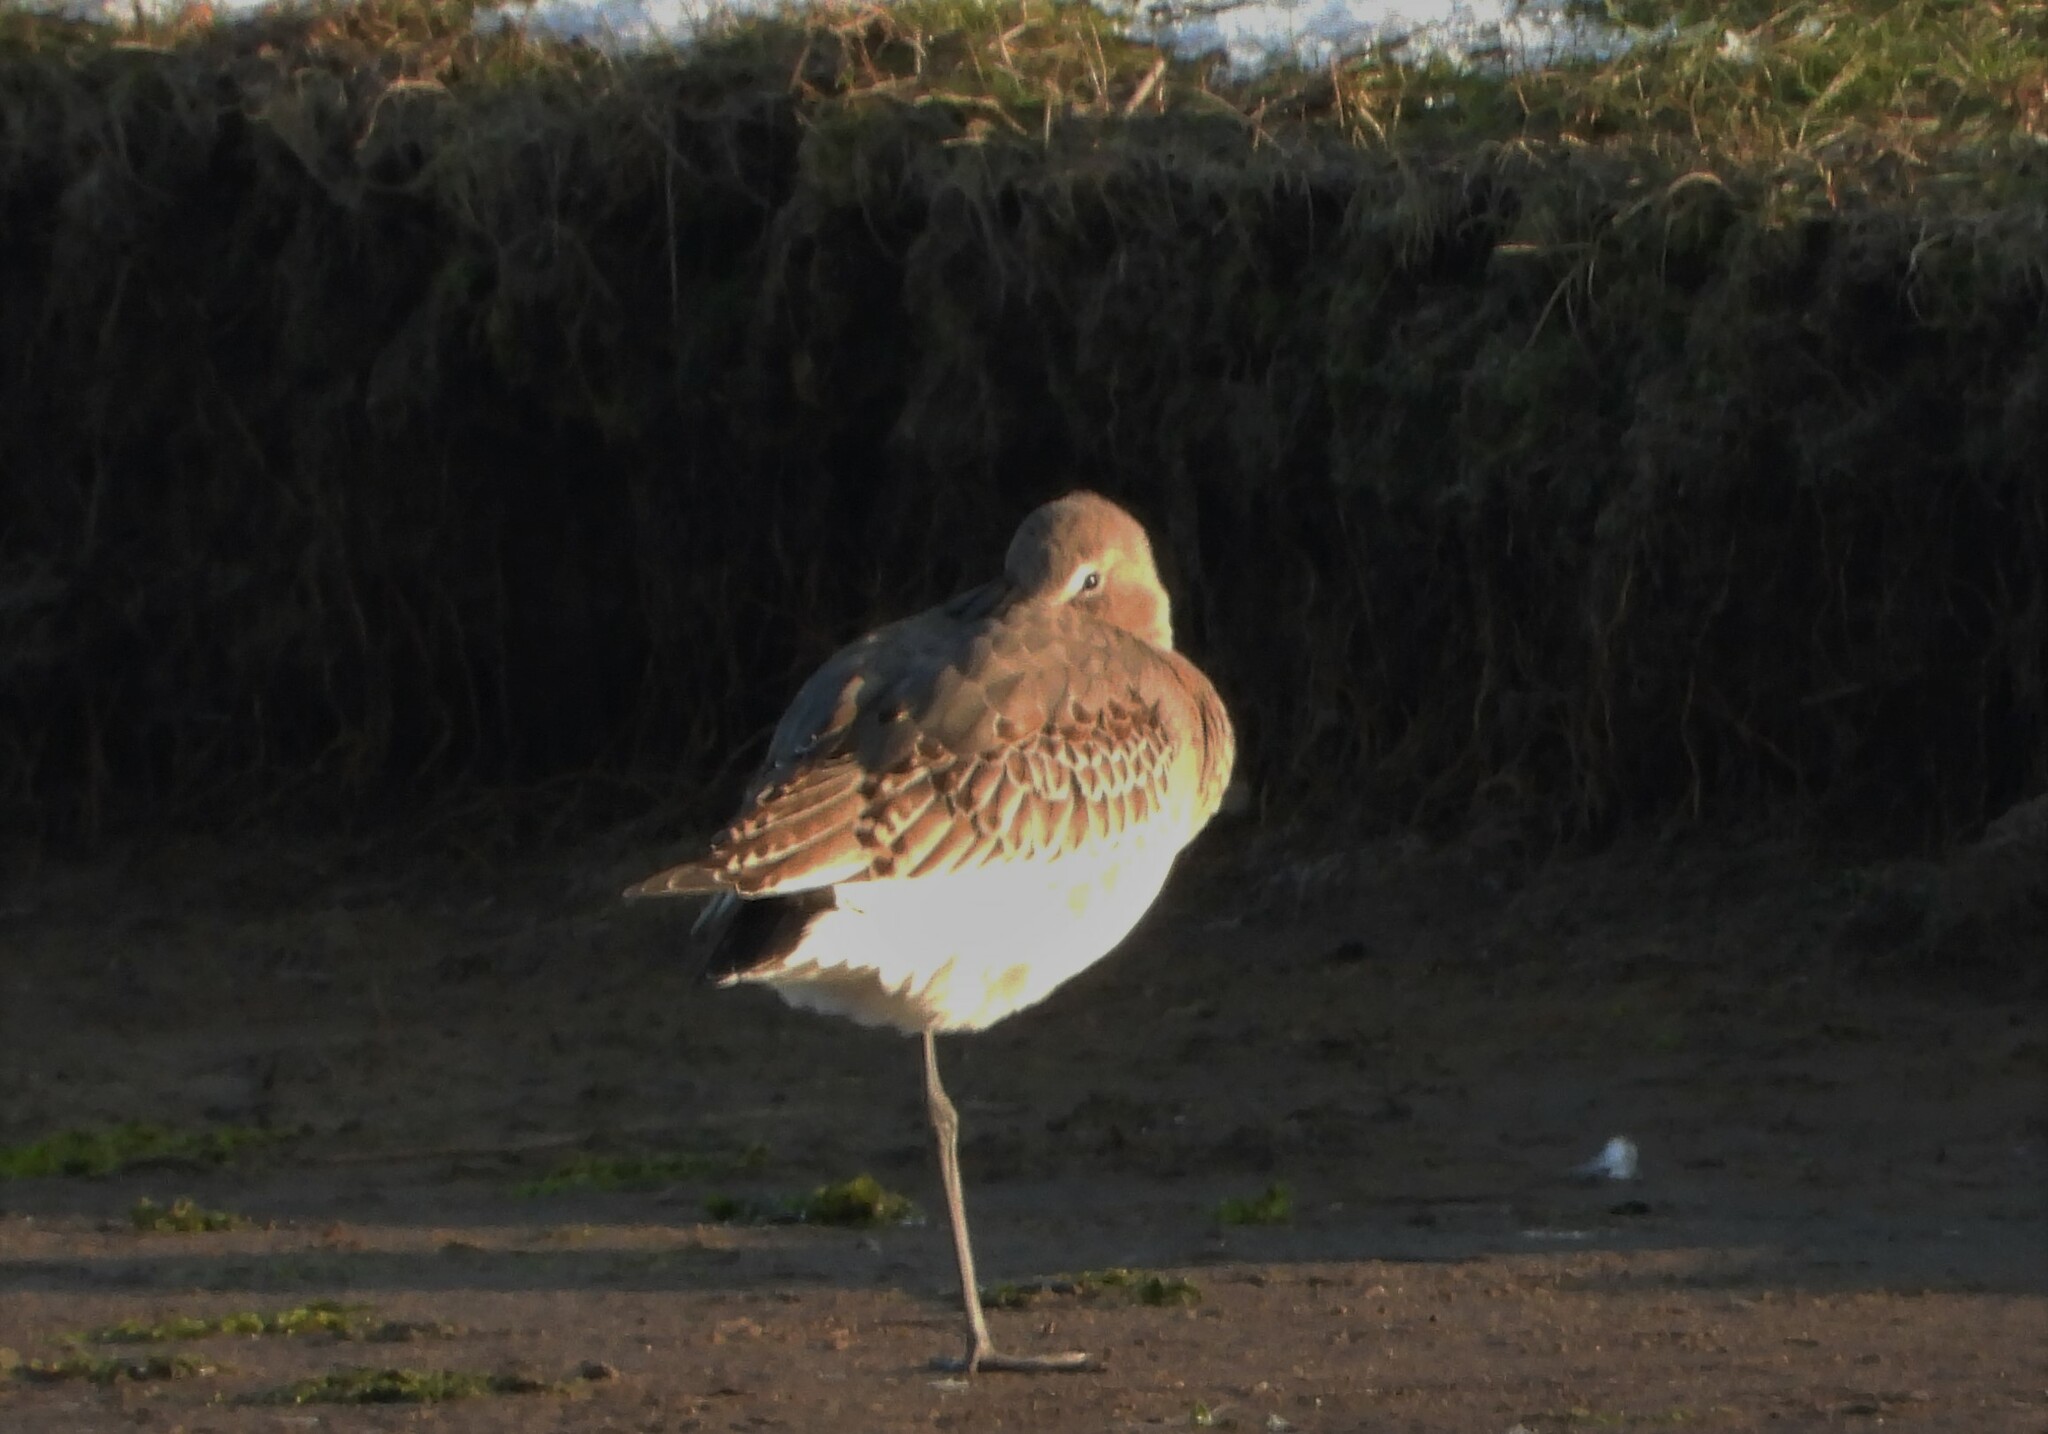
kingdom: Animalia
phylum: Chordata
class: Aves
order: Charadriiformes
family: Scolopacidae
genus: Limosa
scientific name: Limosa limosa
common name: Black-tailed godwit
